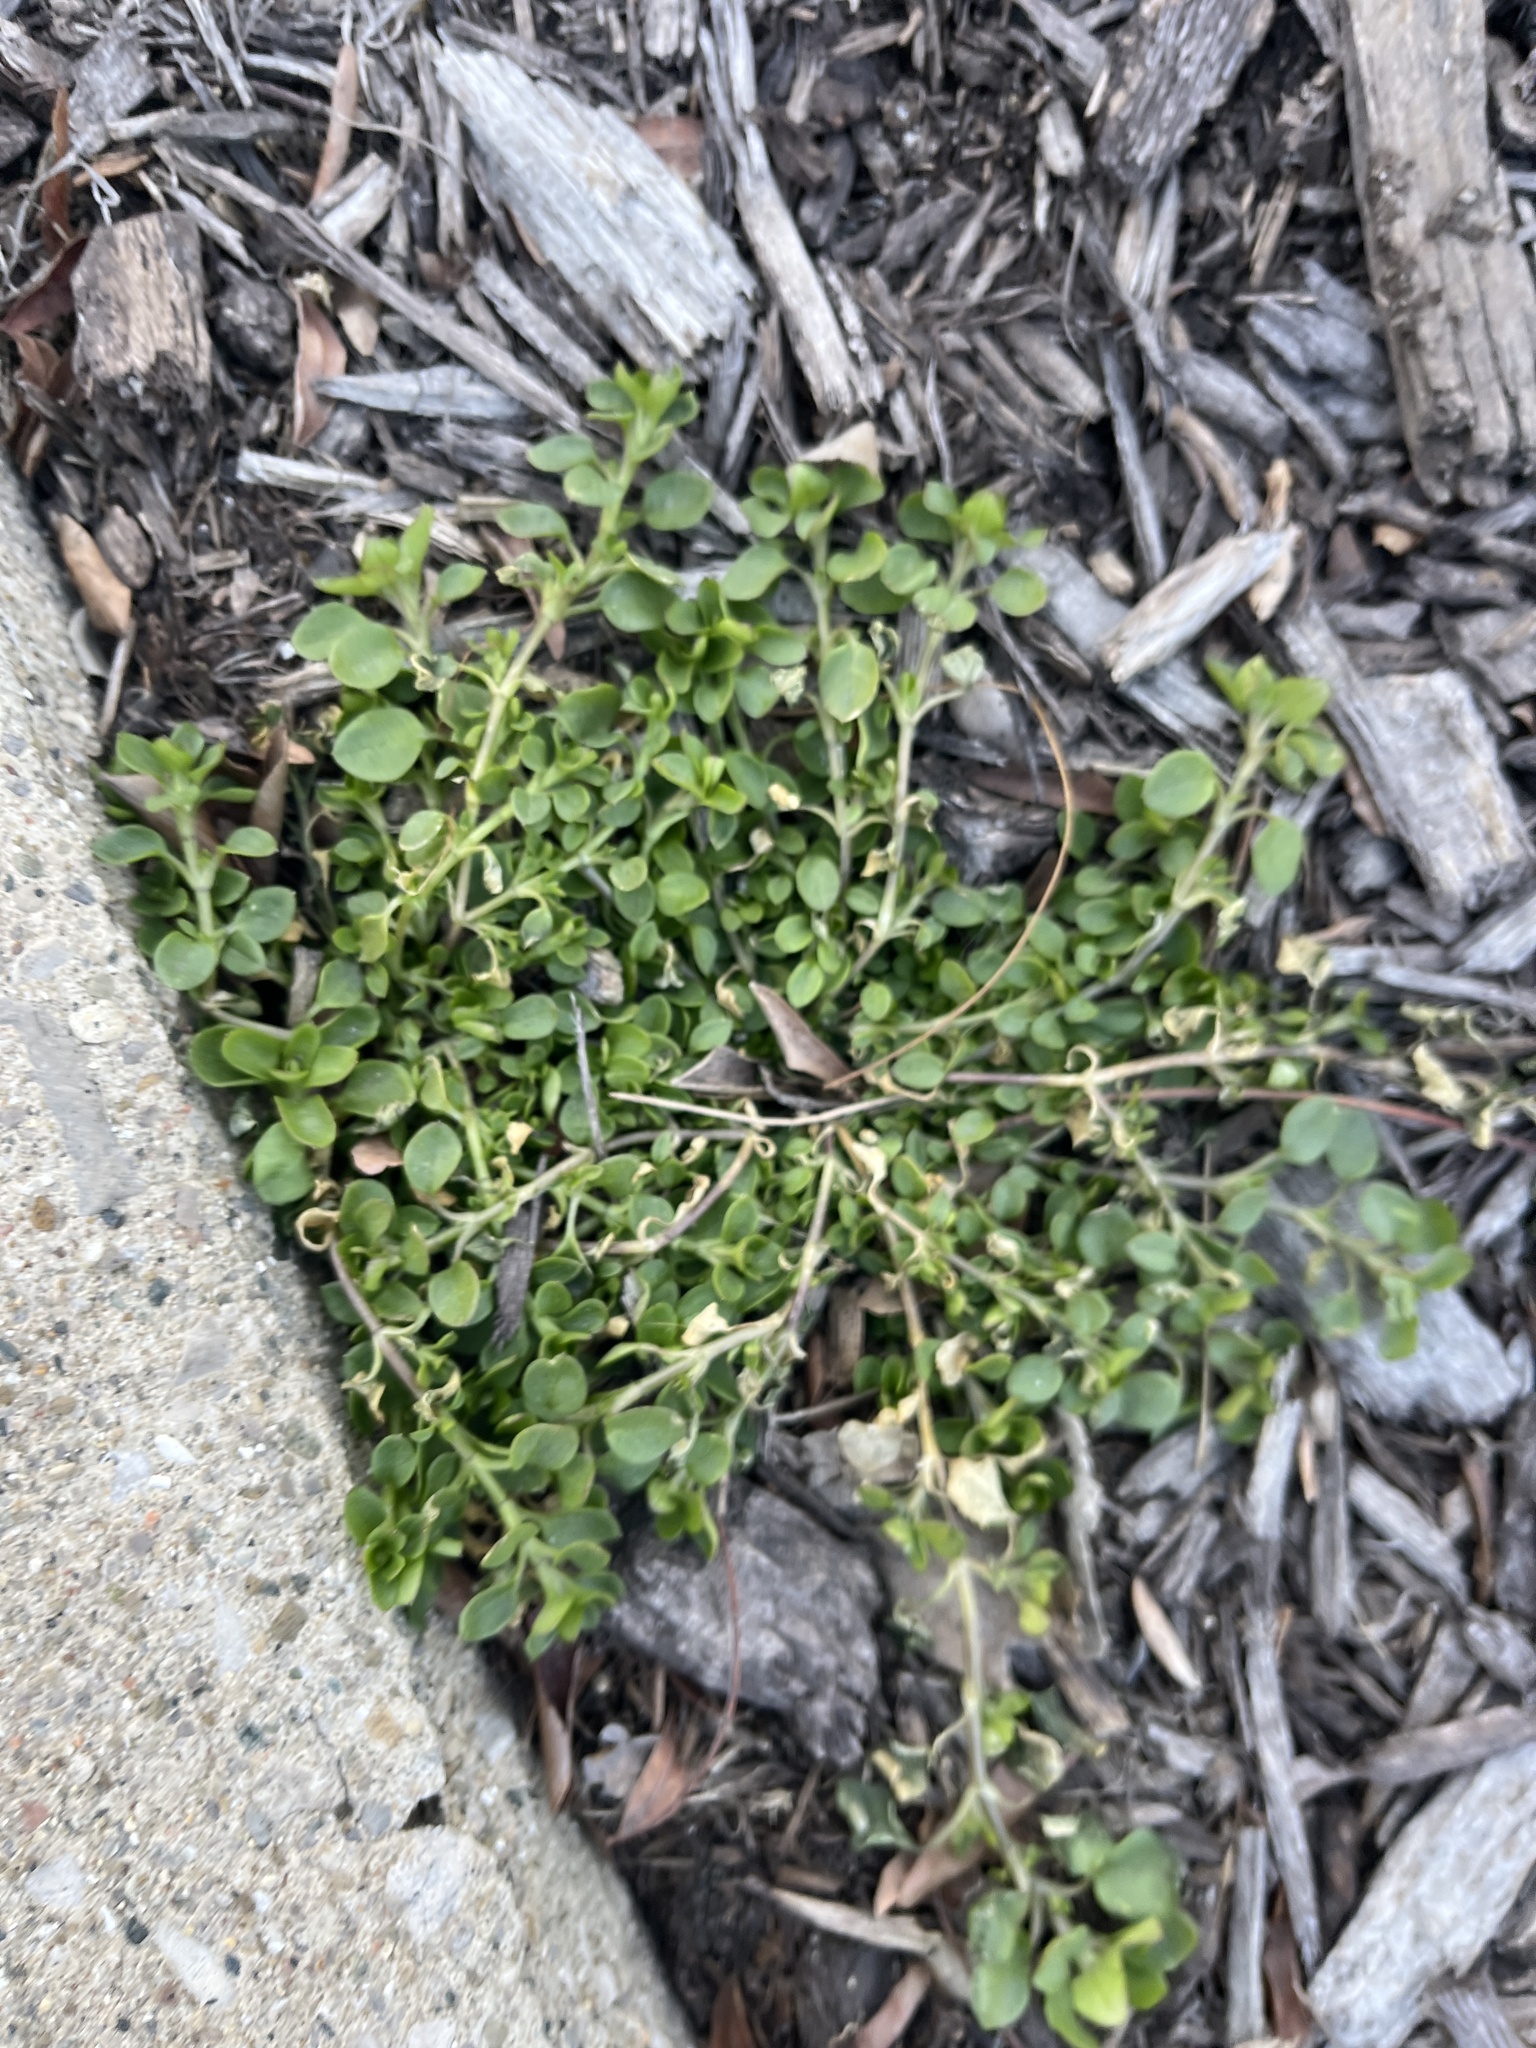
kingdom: Plantae
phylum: Tracheophyta
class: Magnoliopsida
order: Caryophyllales
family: Caryophyllaceae
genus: Stellaria
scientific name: Stellaria media
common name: Common chickweed
